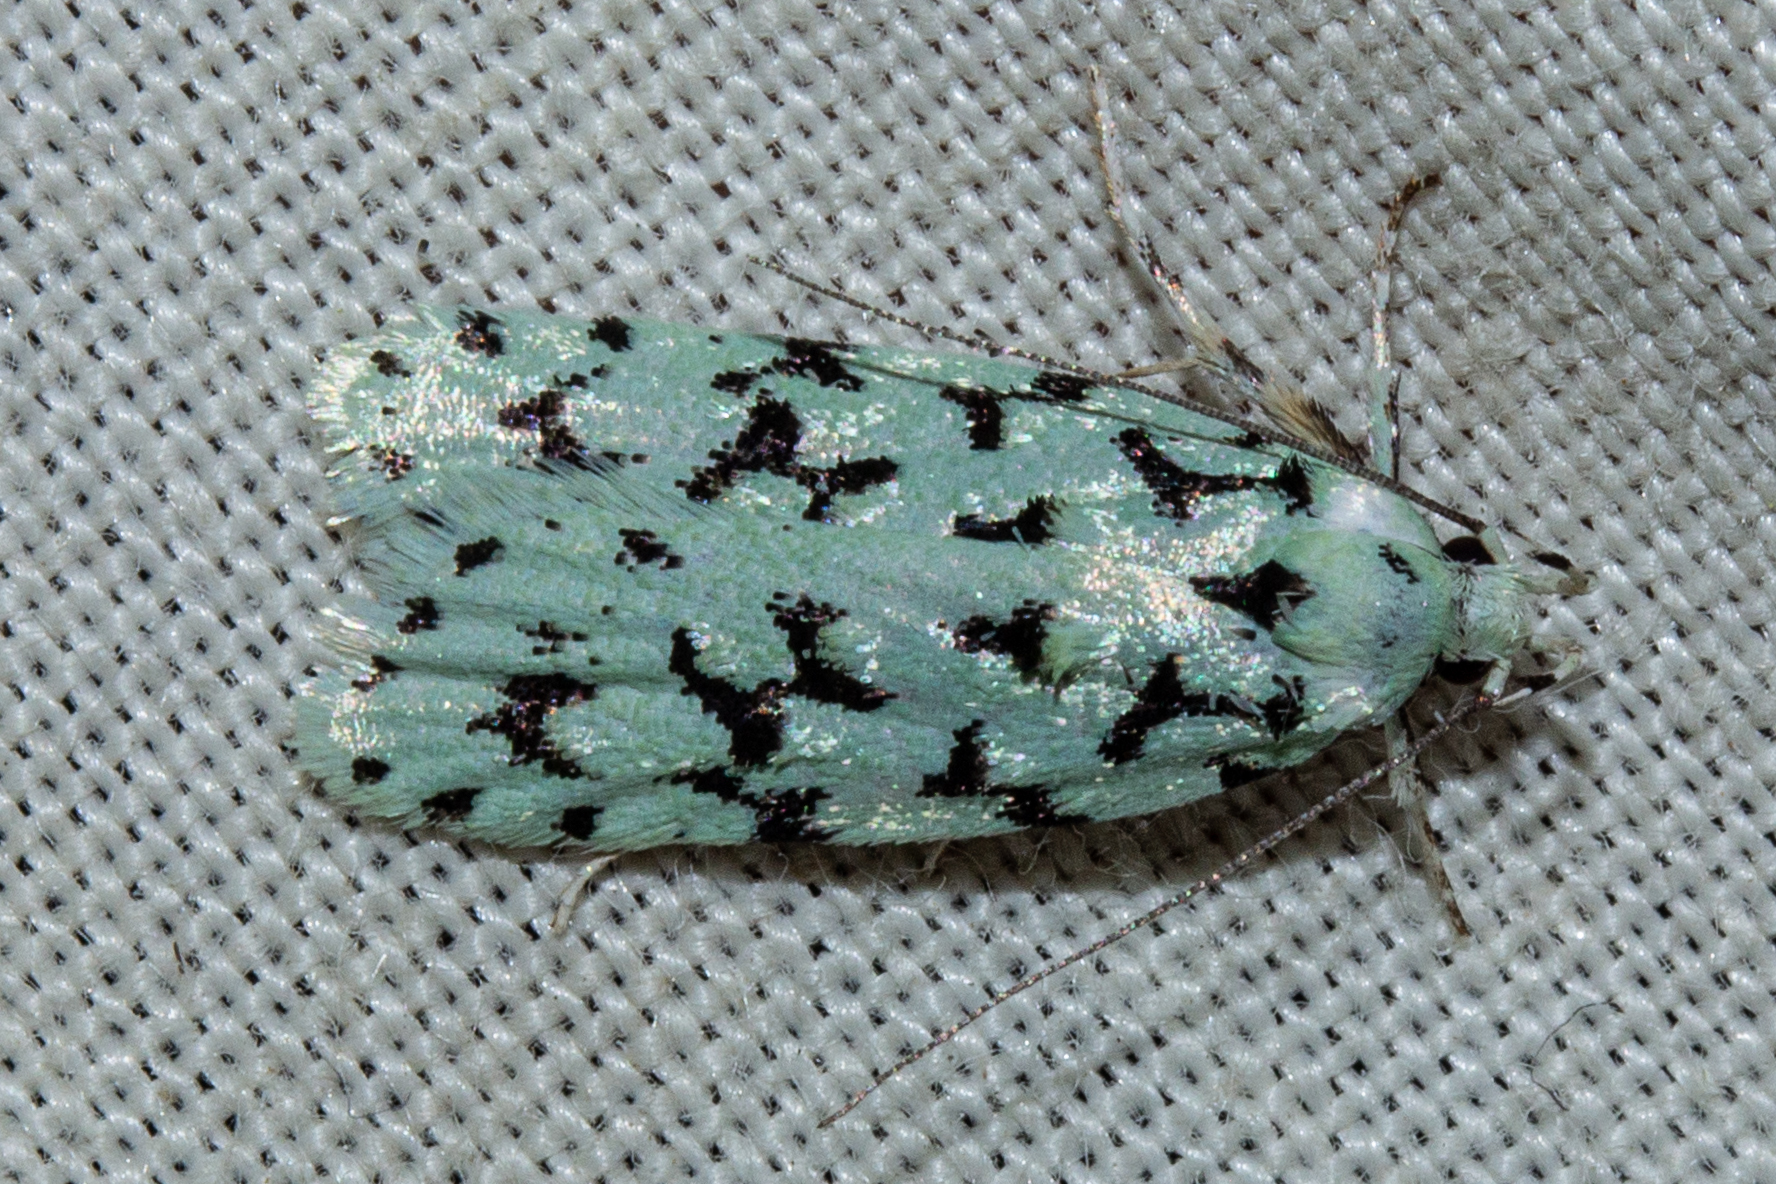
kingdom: Animalia
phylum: Arthropoda
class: Insecta
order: Lepidoptera
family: Oecophoridae
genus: Izatha
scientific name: Izatha huttoni
